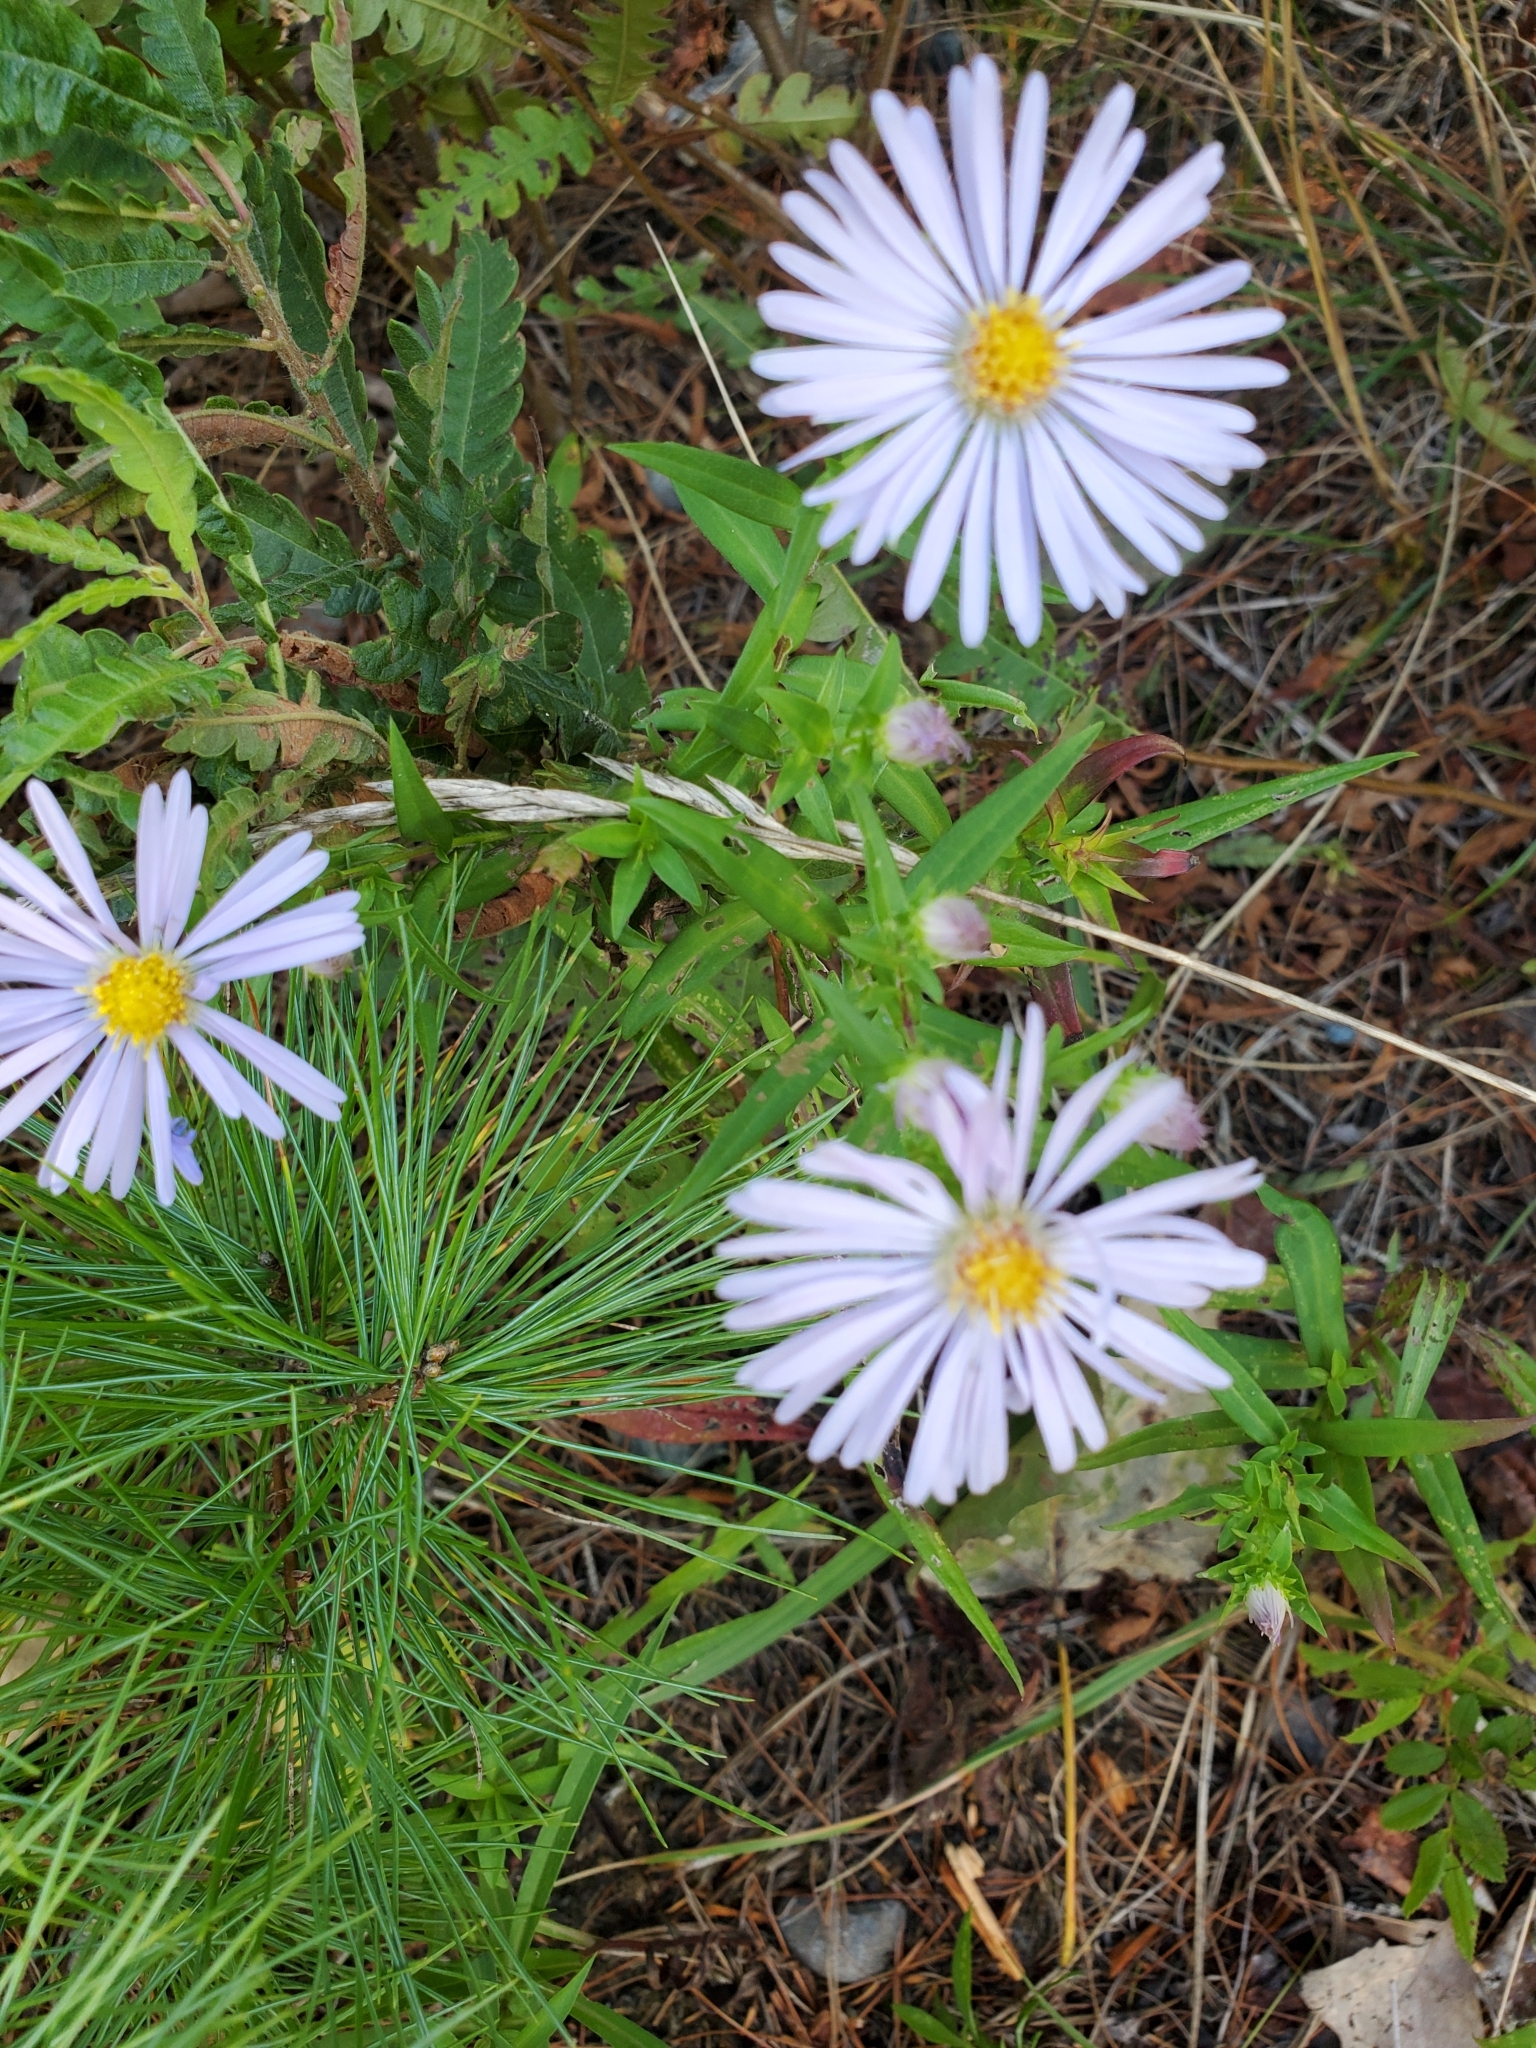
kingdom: Plantae
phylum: Tracheophyta
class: Magnoliopsida
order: Asterales
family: Asteraceae
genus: Symphyotrichum
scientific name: Symphyotrichum novi-belgii
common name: Michaelmas daisy
